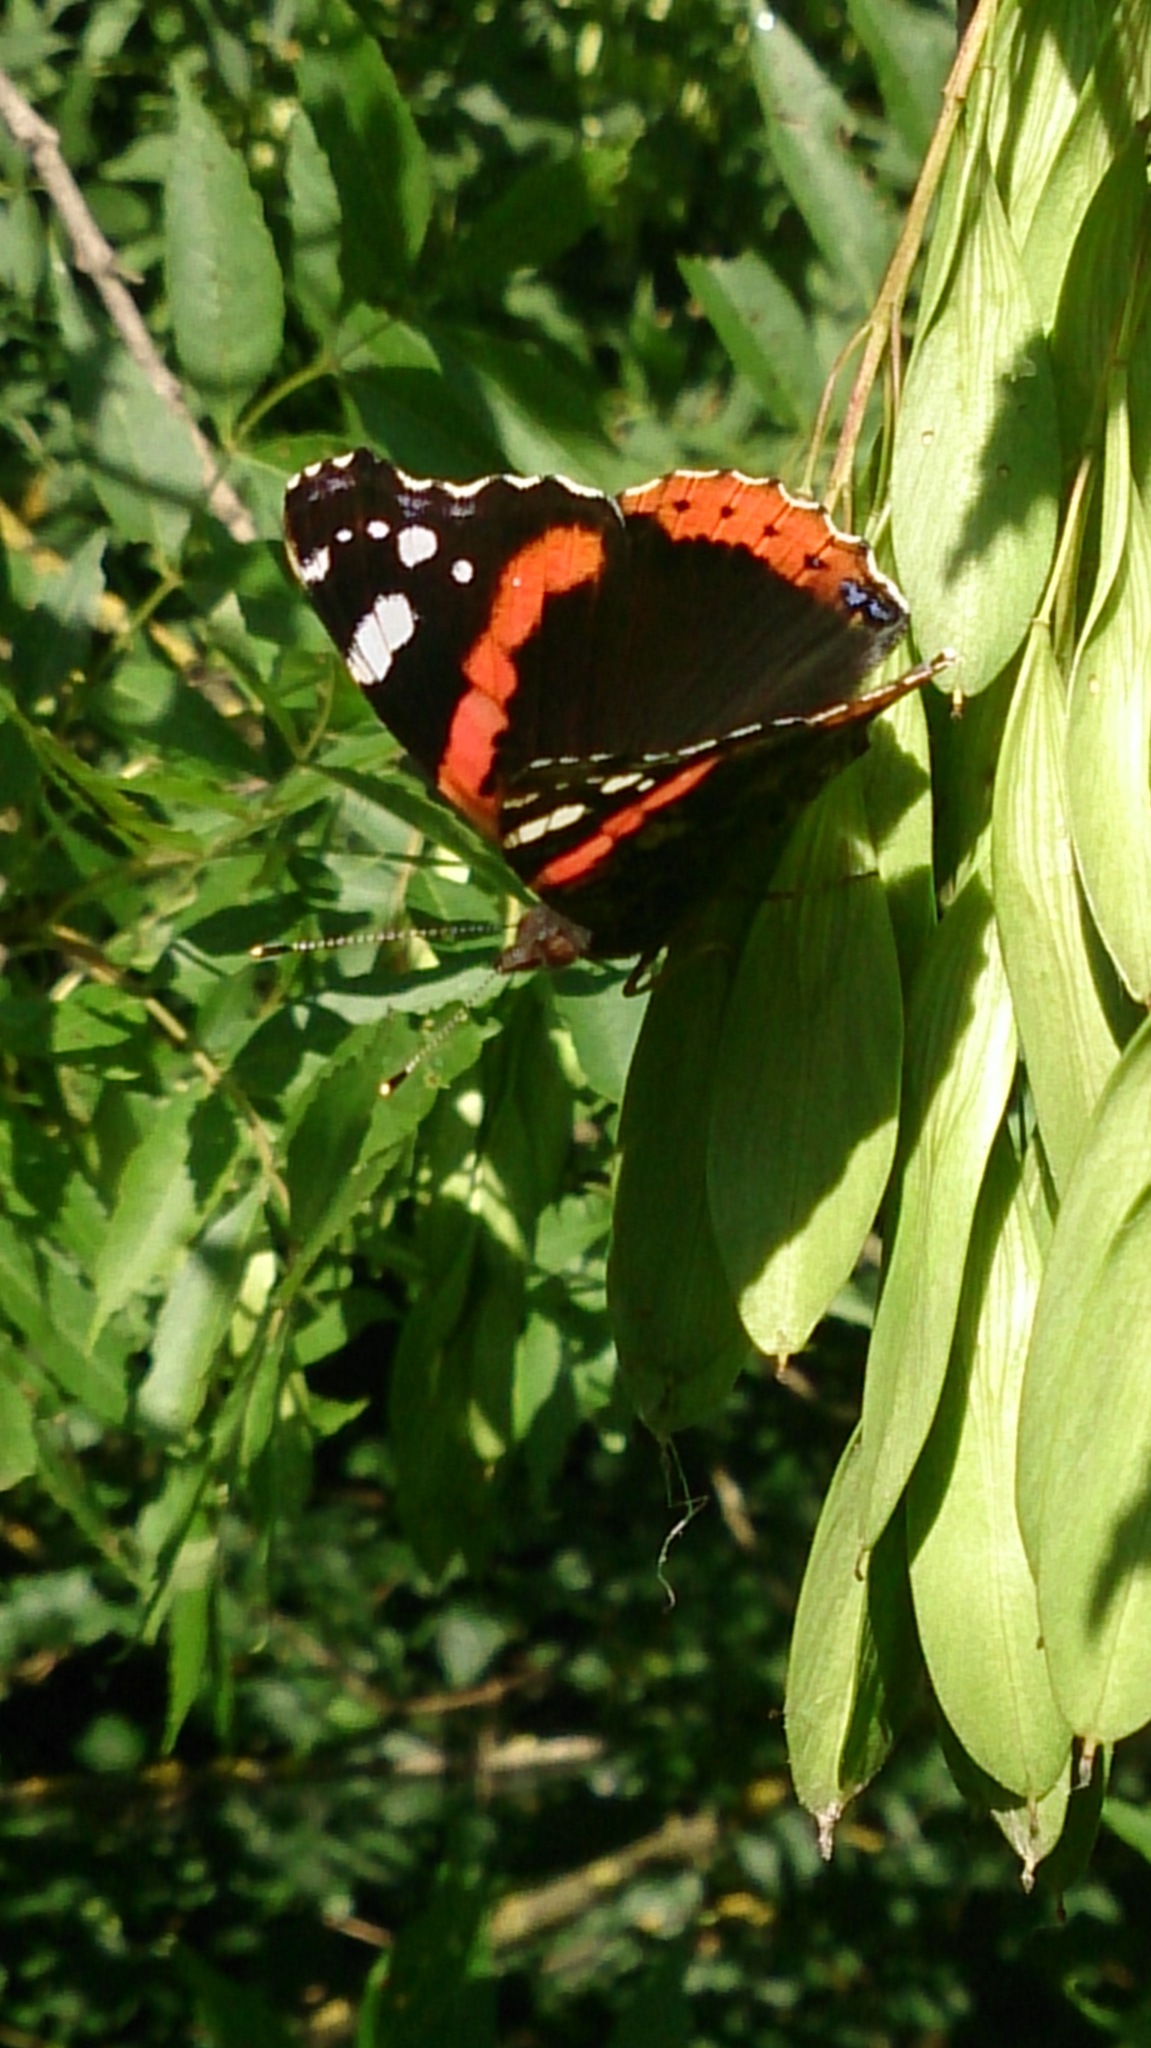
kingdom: Animalia
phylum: Arthropoda
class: Insecta
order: Lepidoptera
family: Nymphalidae
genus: Vanessa
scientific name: Vanessa atalanta
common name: Red admiral
